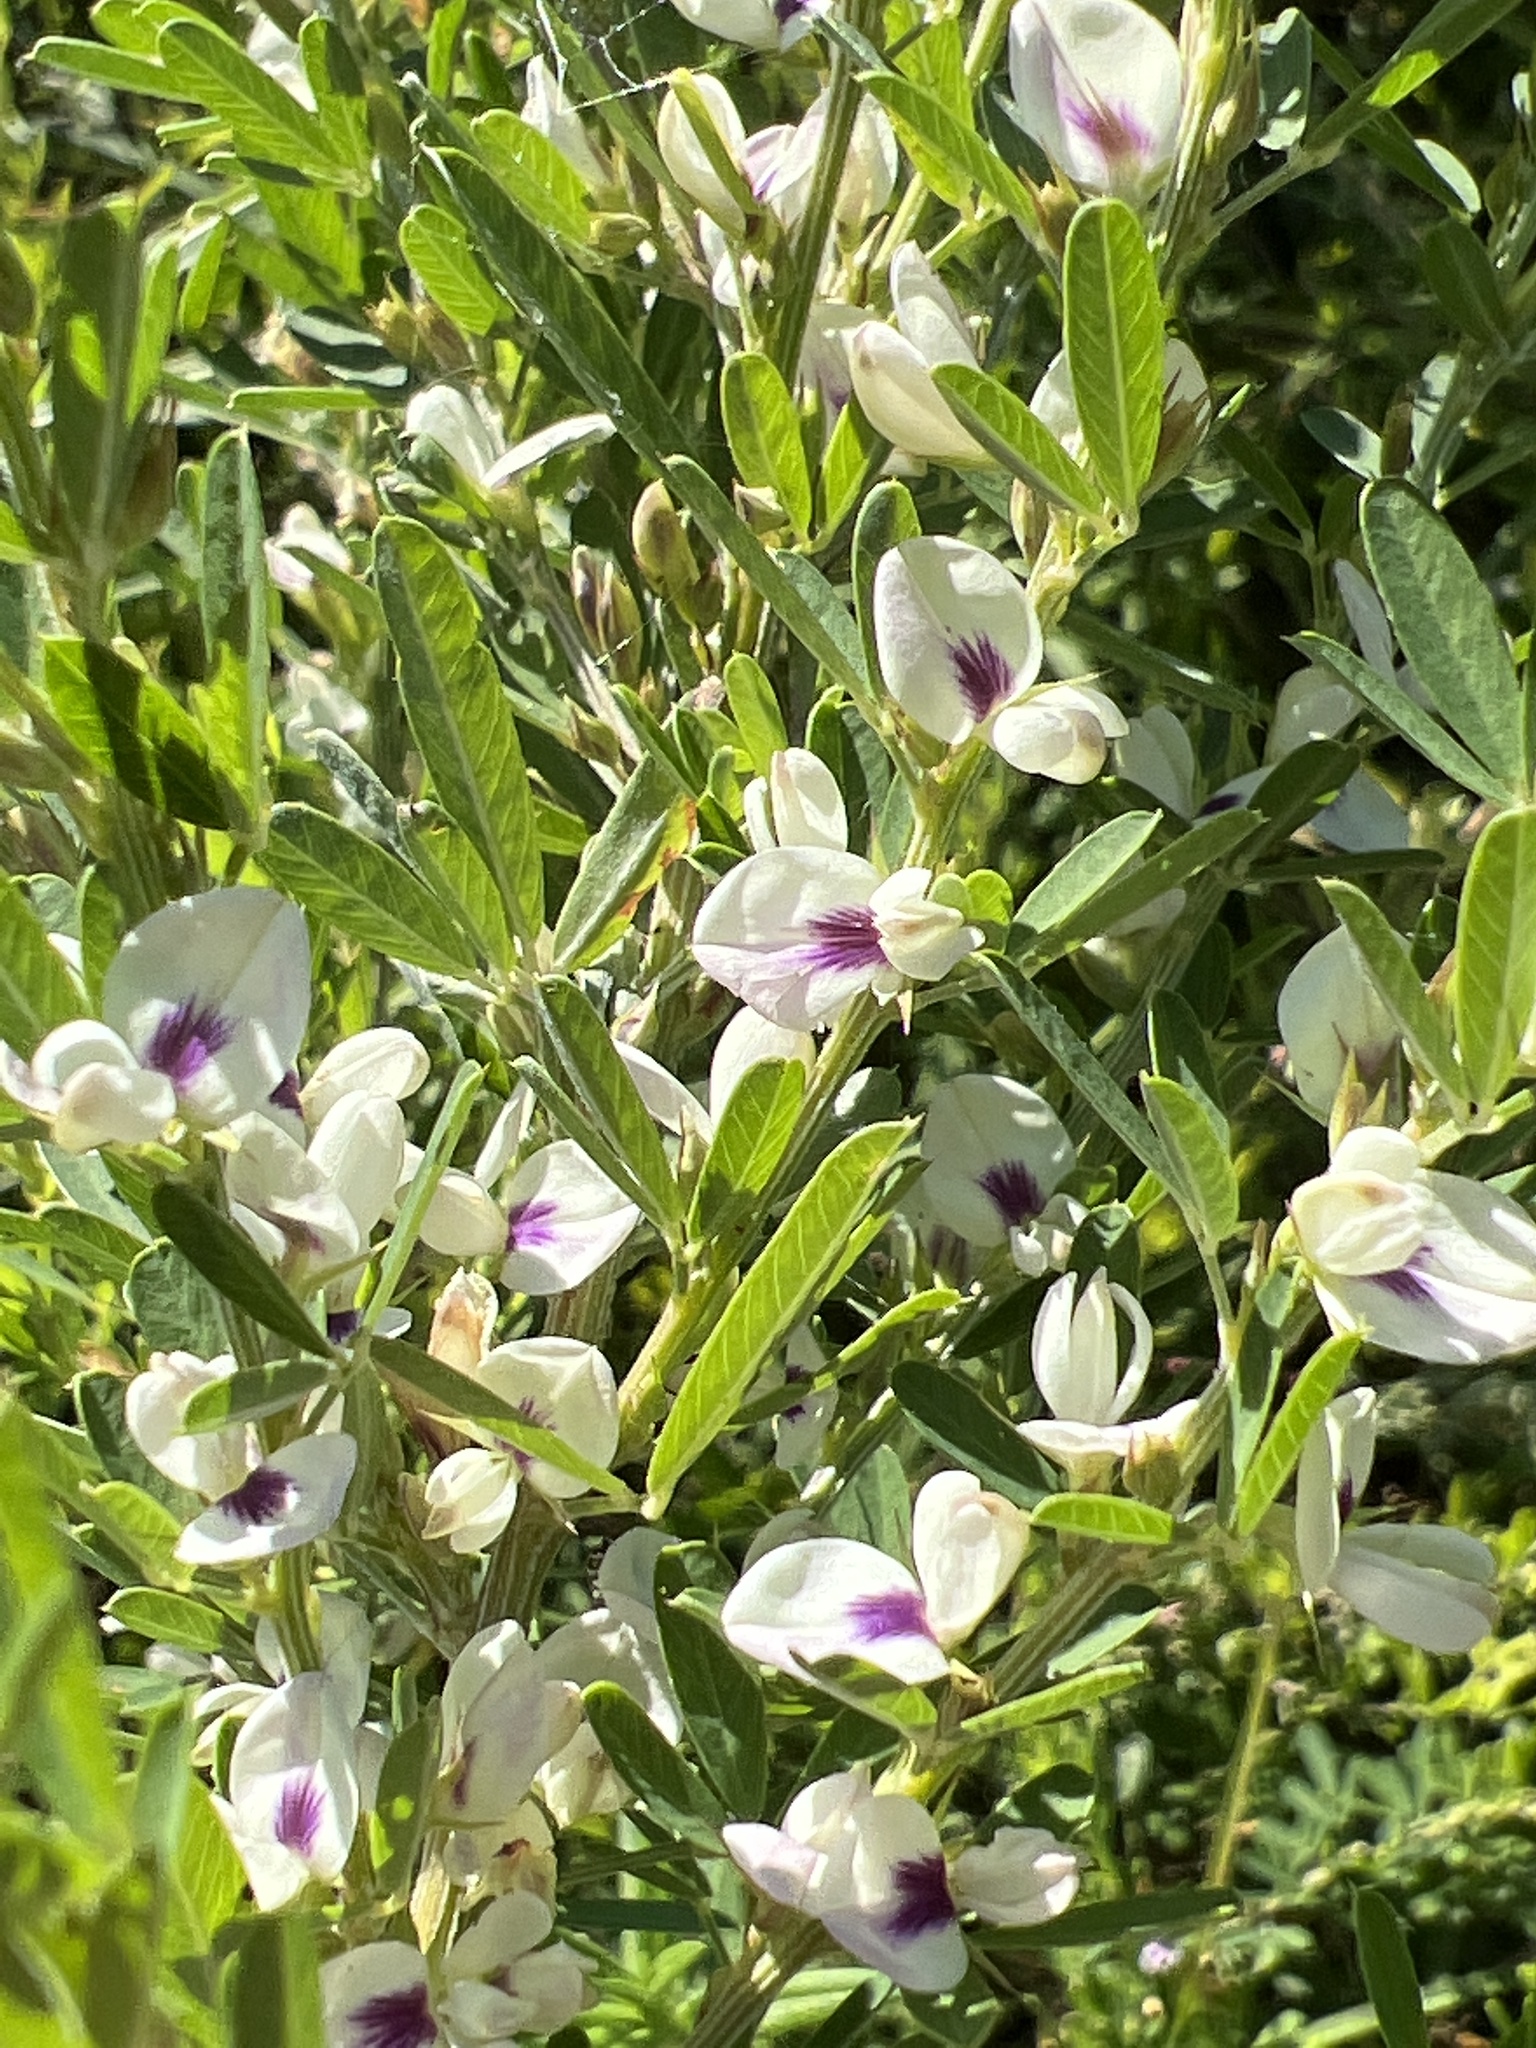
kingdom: Plantae
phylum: Tracheophyta
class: Magnoliopsida
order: Fabales
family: Fabaceae
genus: Lespedeza
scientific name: Lespedeza cuneata
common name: Chinese bush-clover
